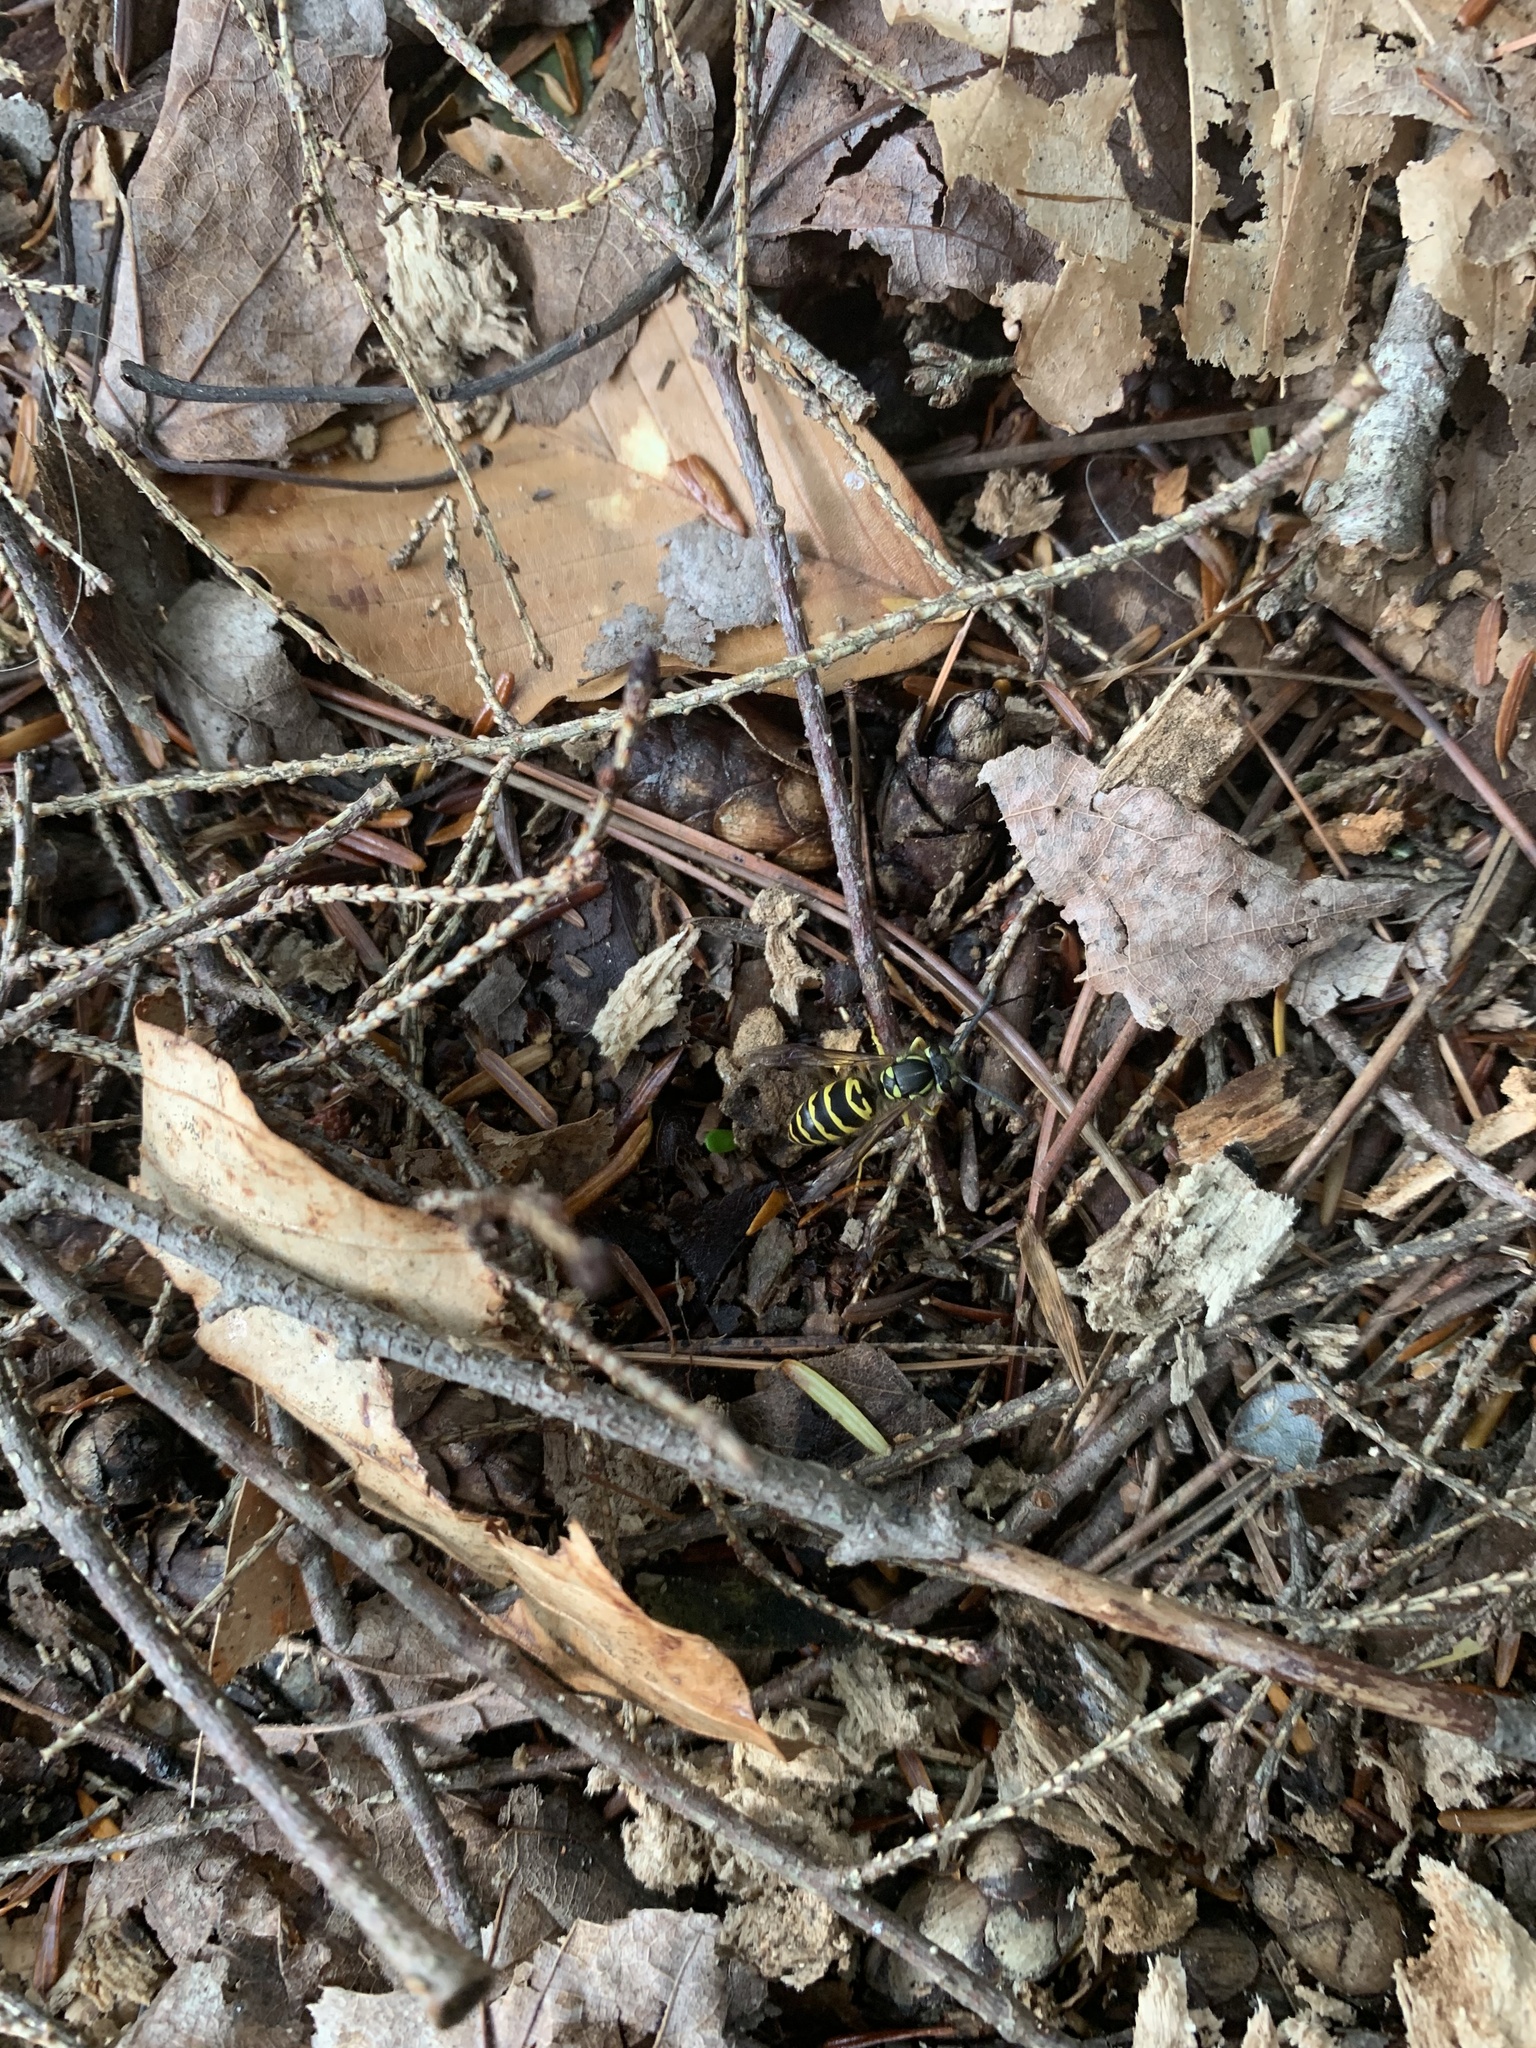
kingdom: Animalia
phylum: Arthropoda
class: Insecta
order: Hymenoptera
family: Vespidae
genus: Vespula
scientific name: Vespula maculifrons
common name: Eastern yellowjacket
